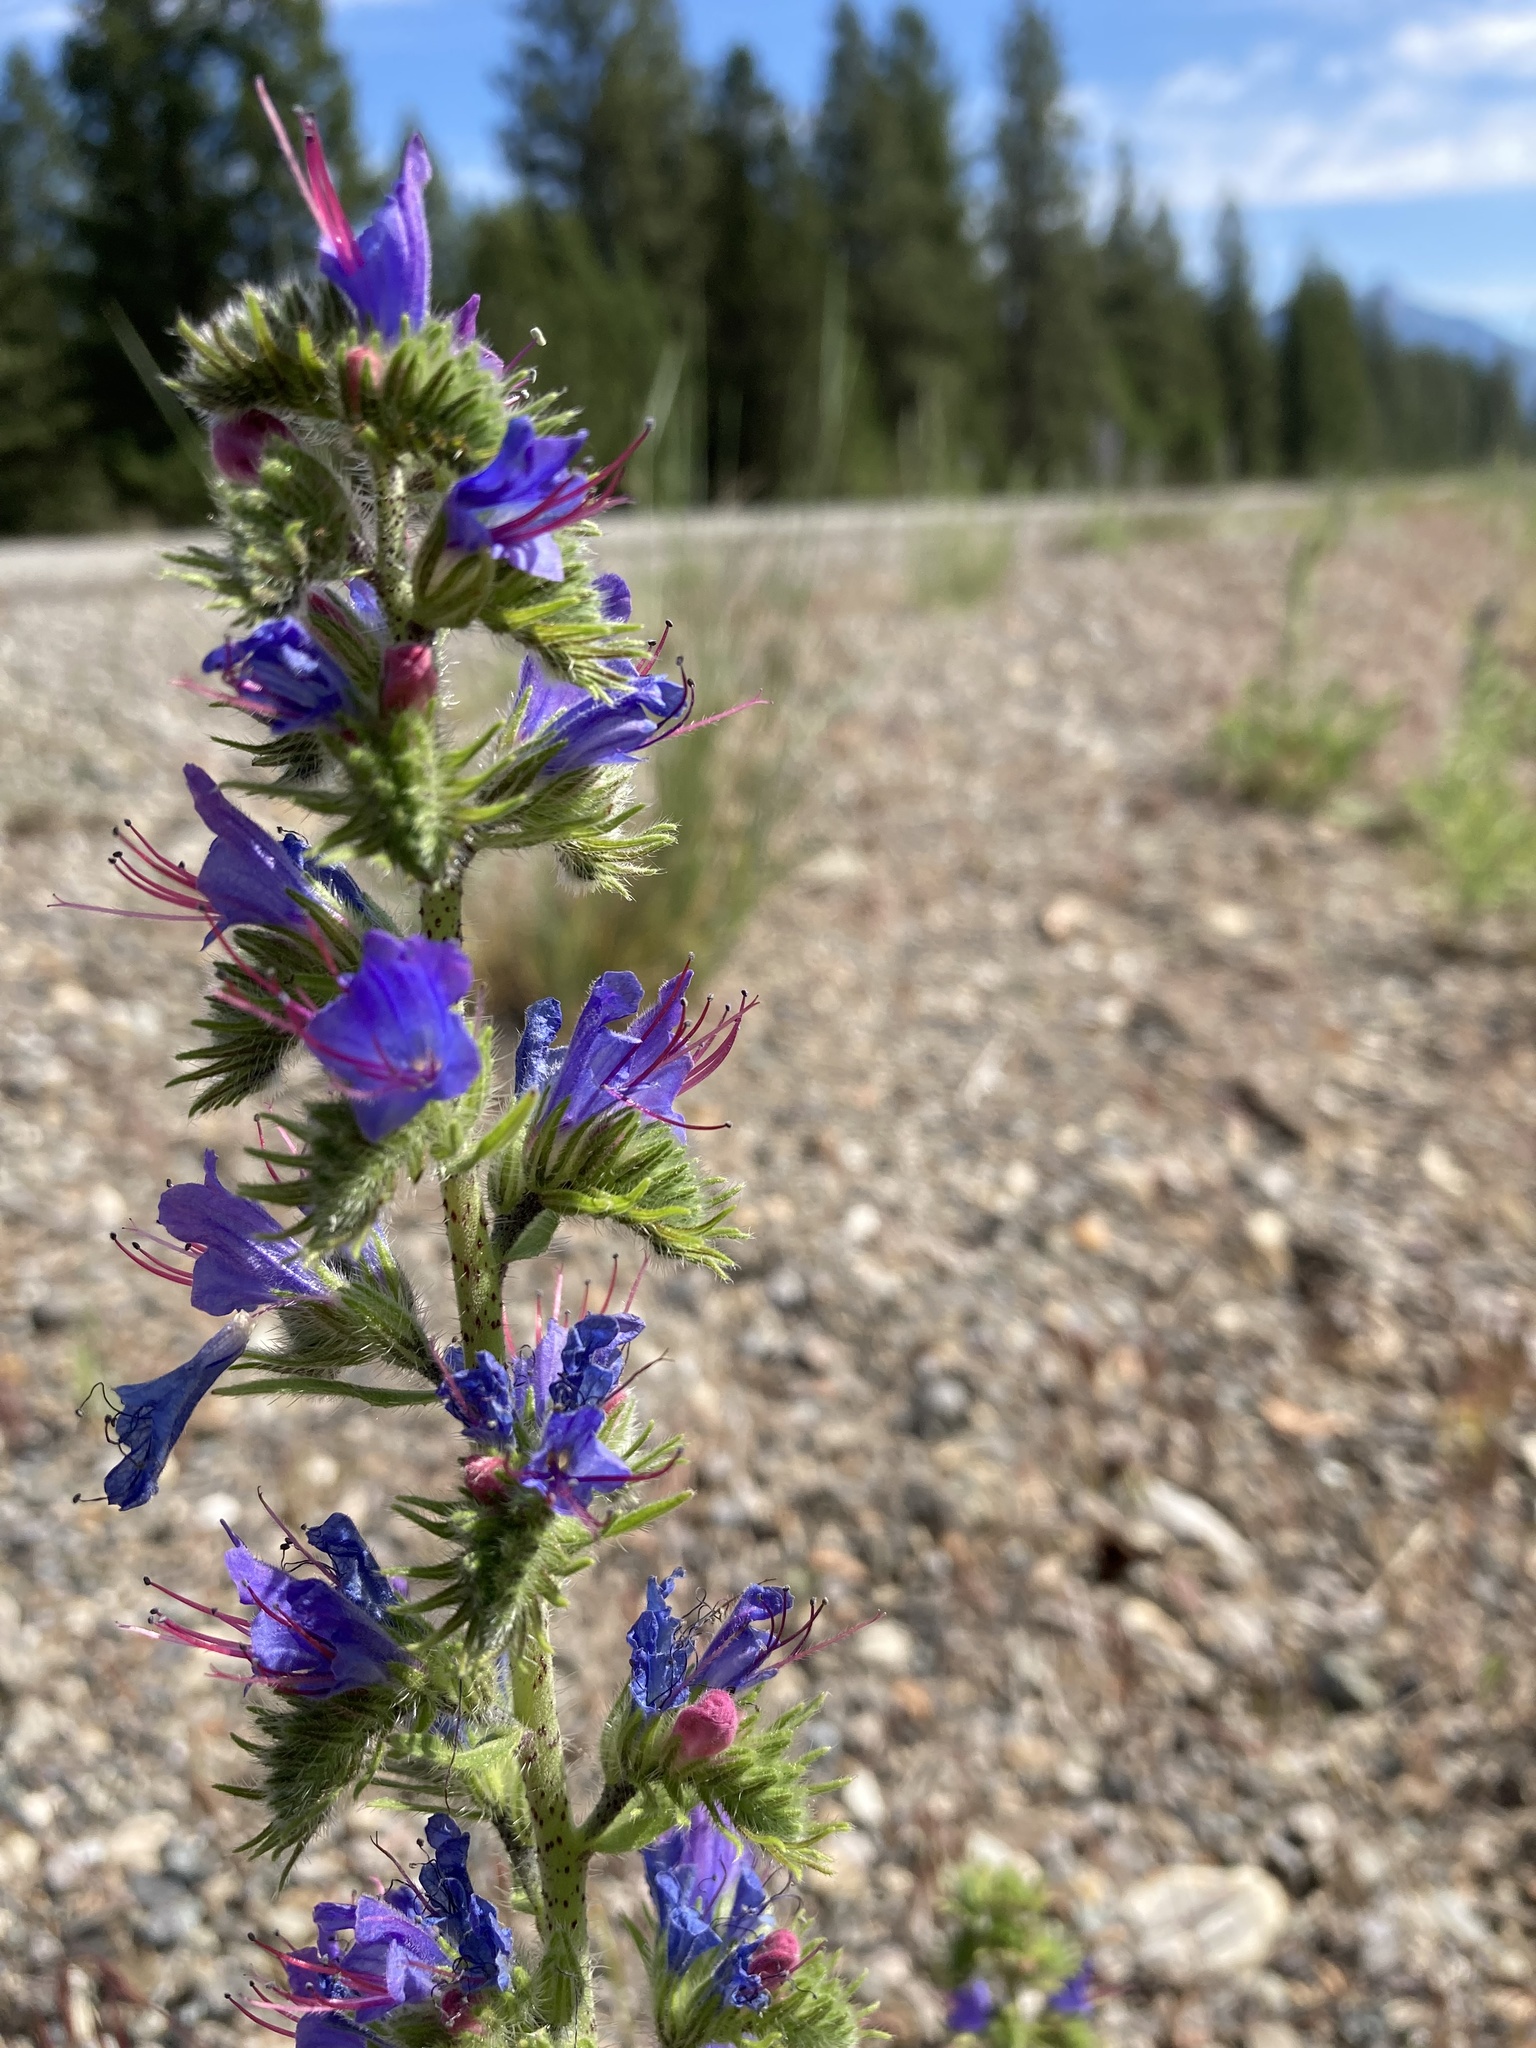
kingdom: Plantae
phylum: Tracheophyta
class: Magnoliopsida
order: Boraginales
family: Boraginaceae
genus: Echium
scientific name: Echium vulgare
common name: Common viper's bugloss
